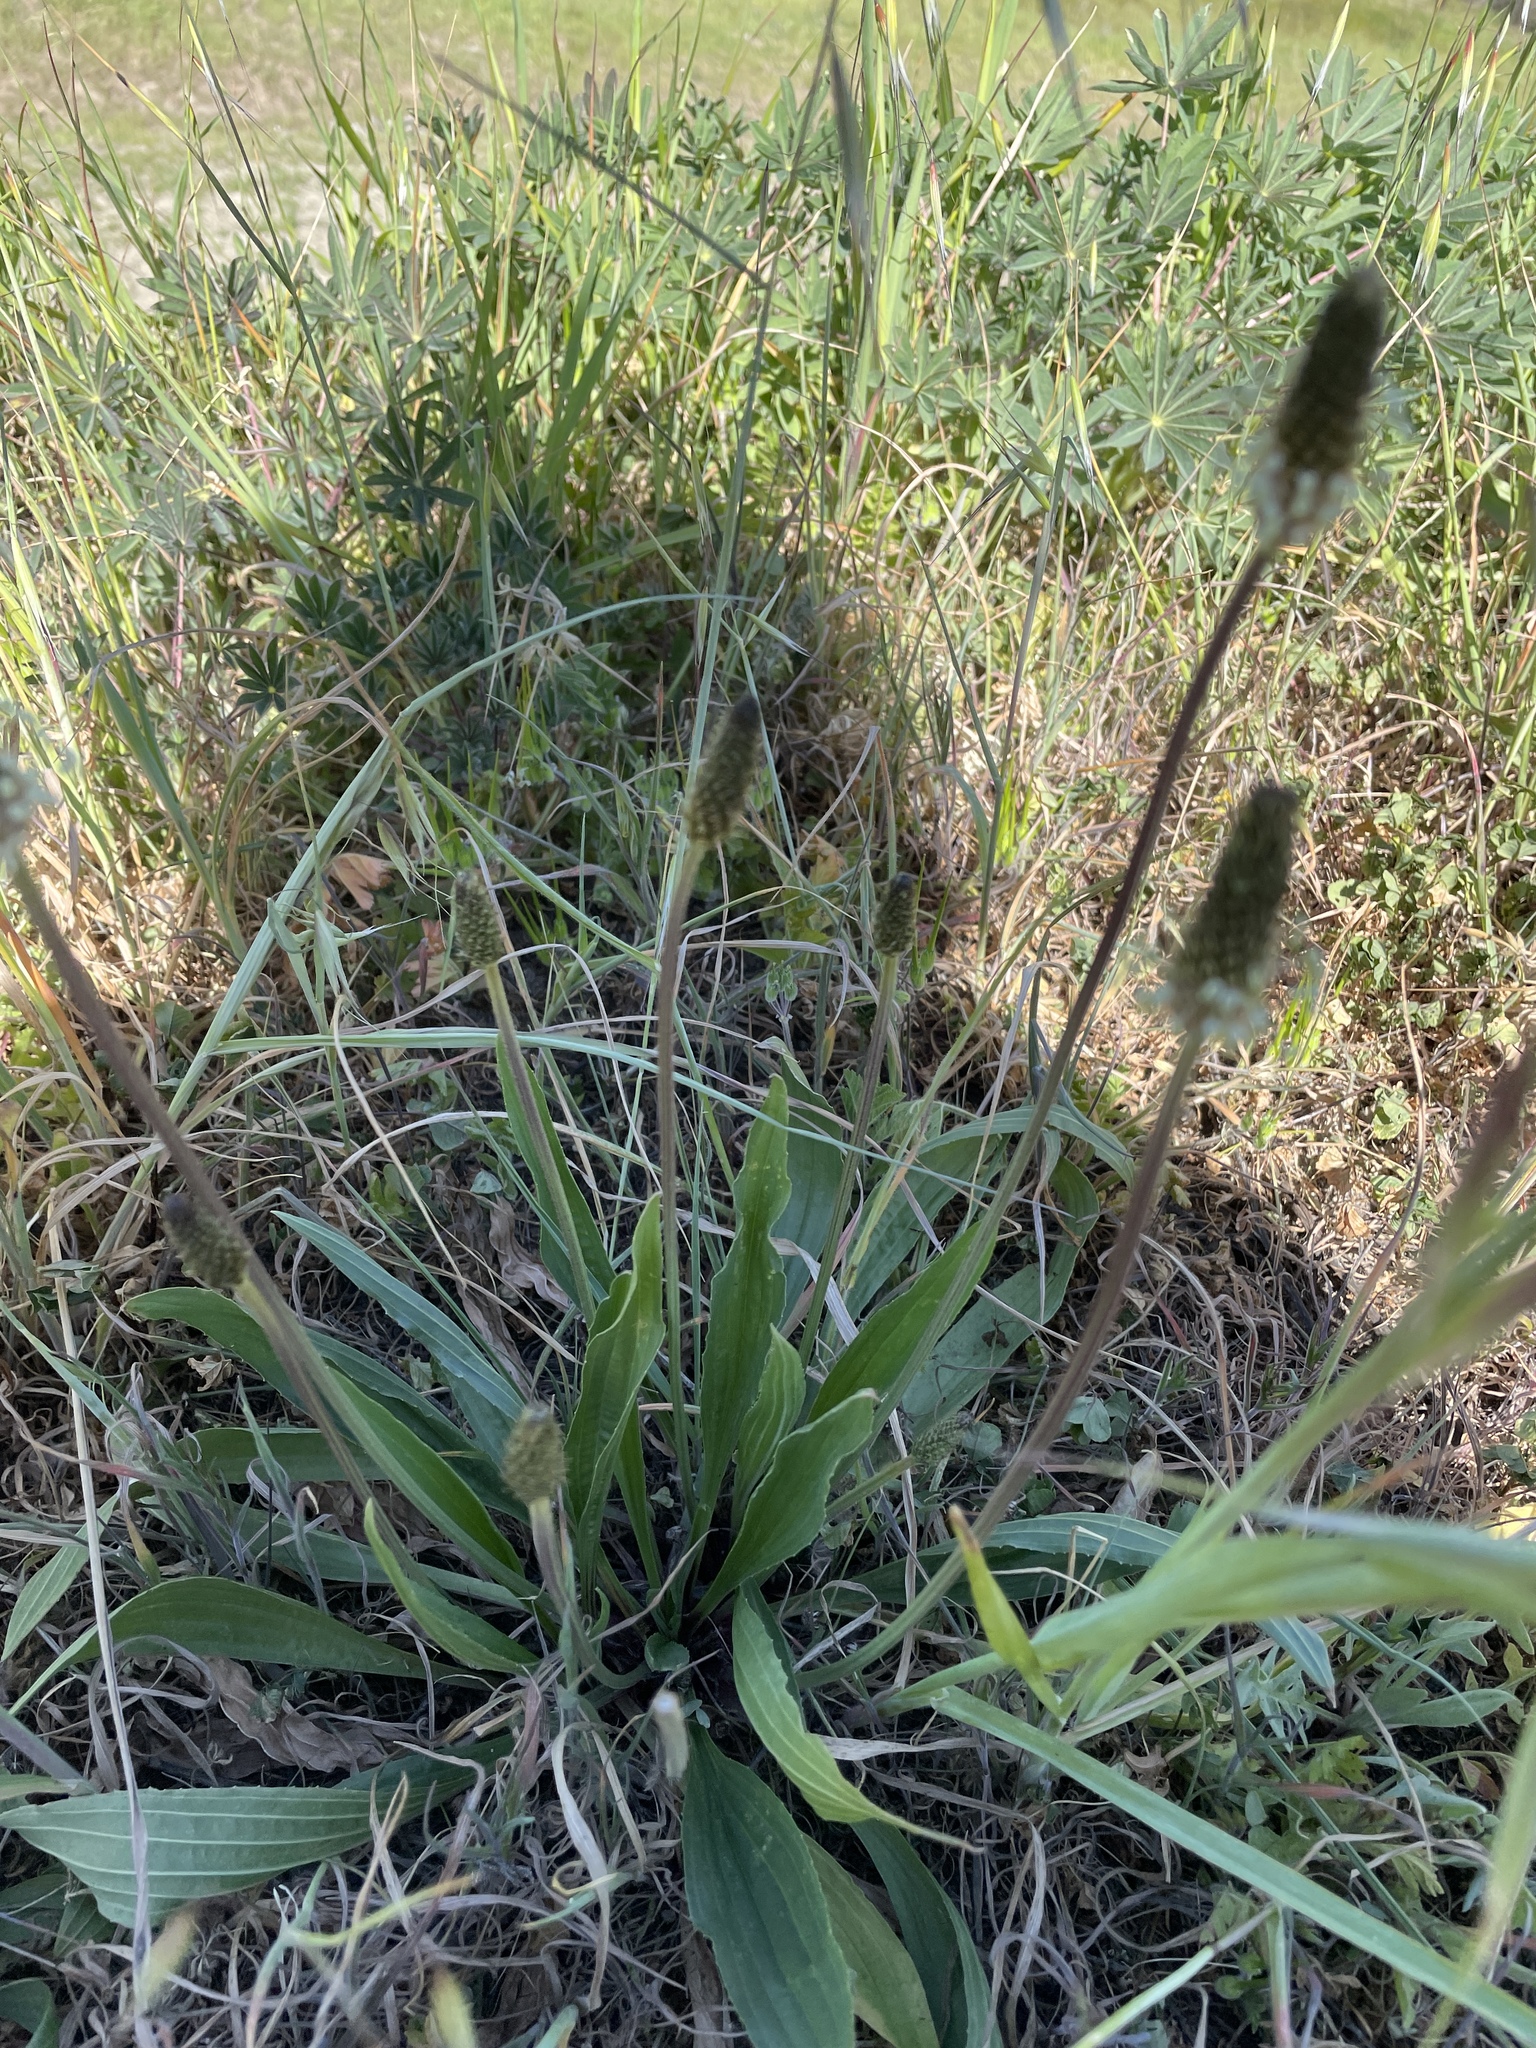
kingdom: Plantae
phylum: Tracheophyta
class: Magnoliopsida
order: Lamiales
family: Plantaginaceae
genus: Plantago
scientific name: Plantago lanceolata
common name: Ribwort plantain
